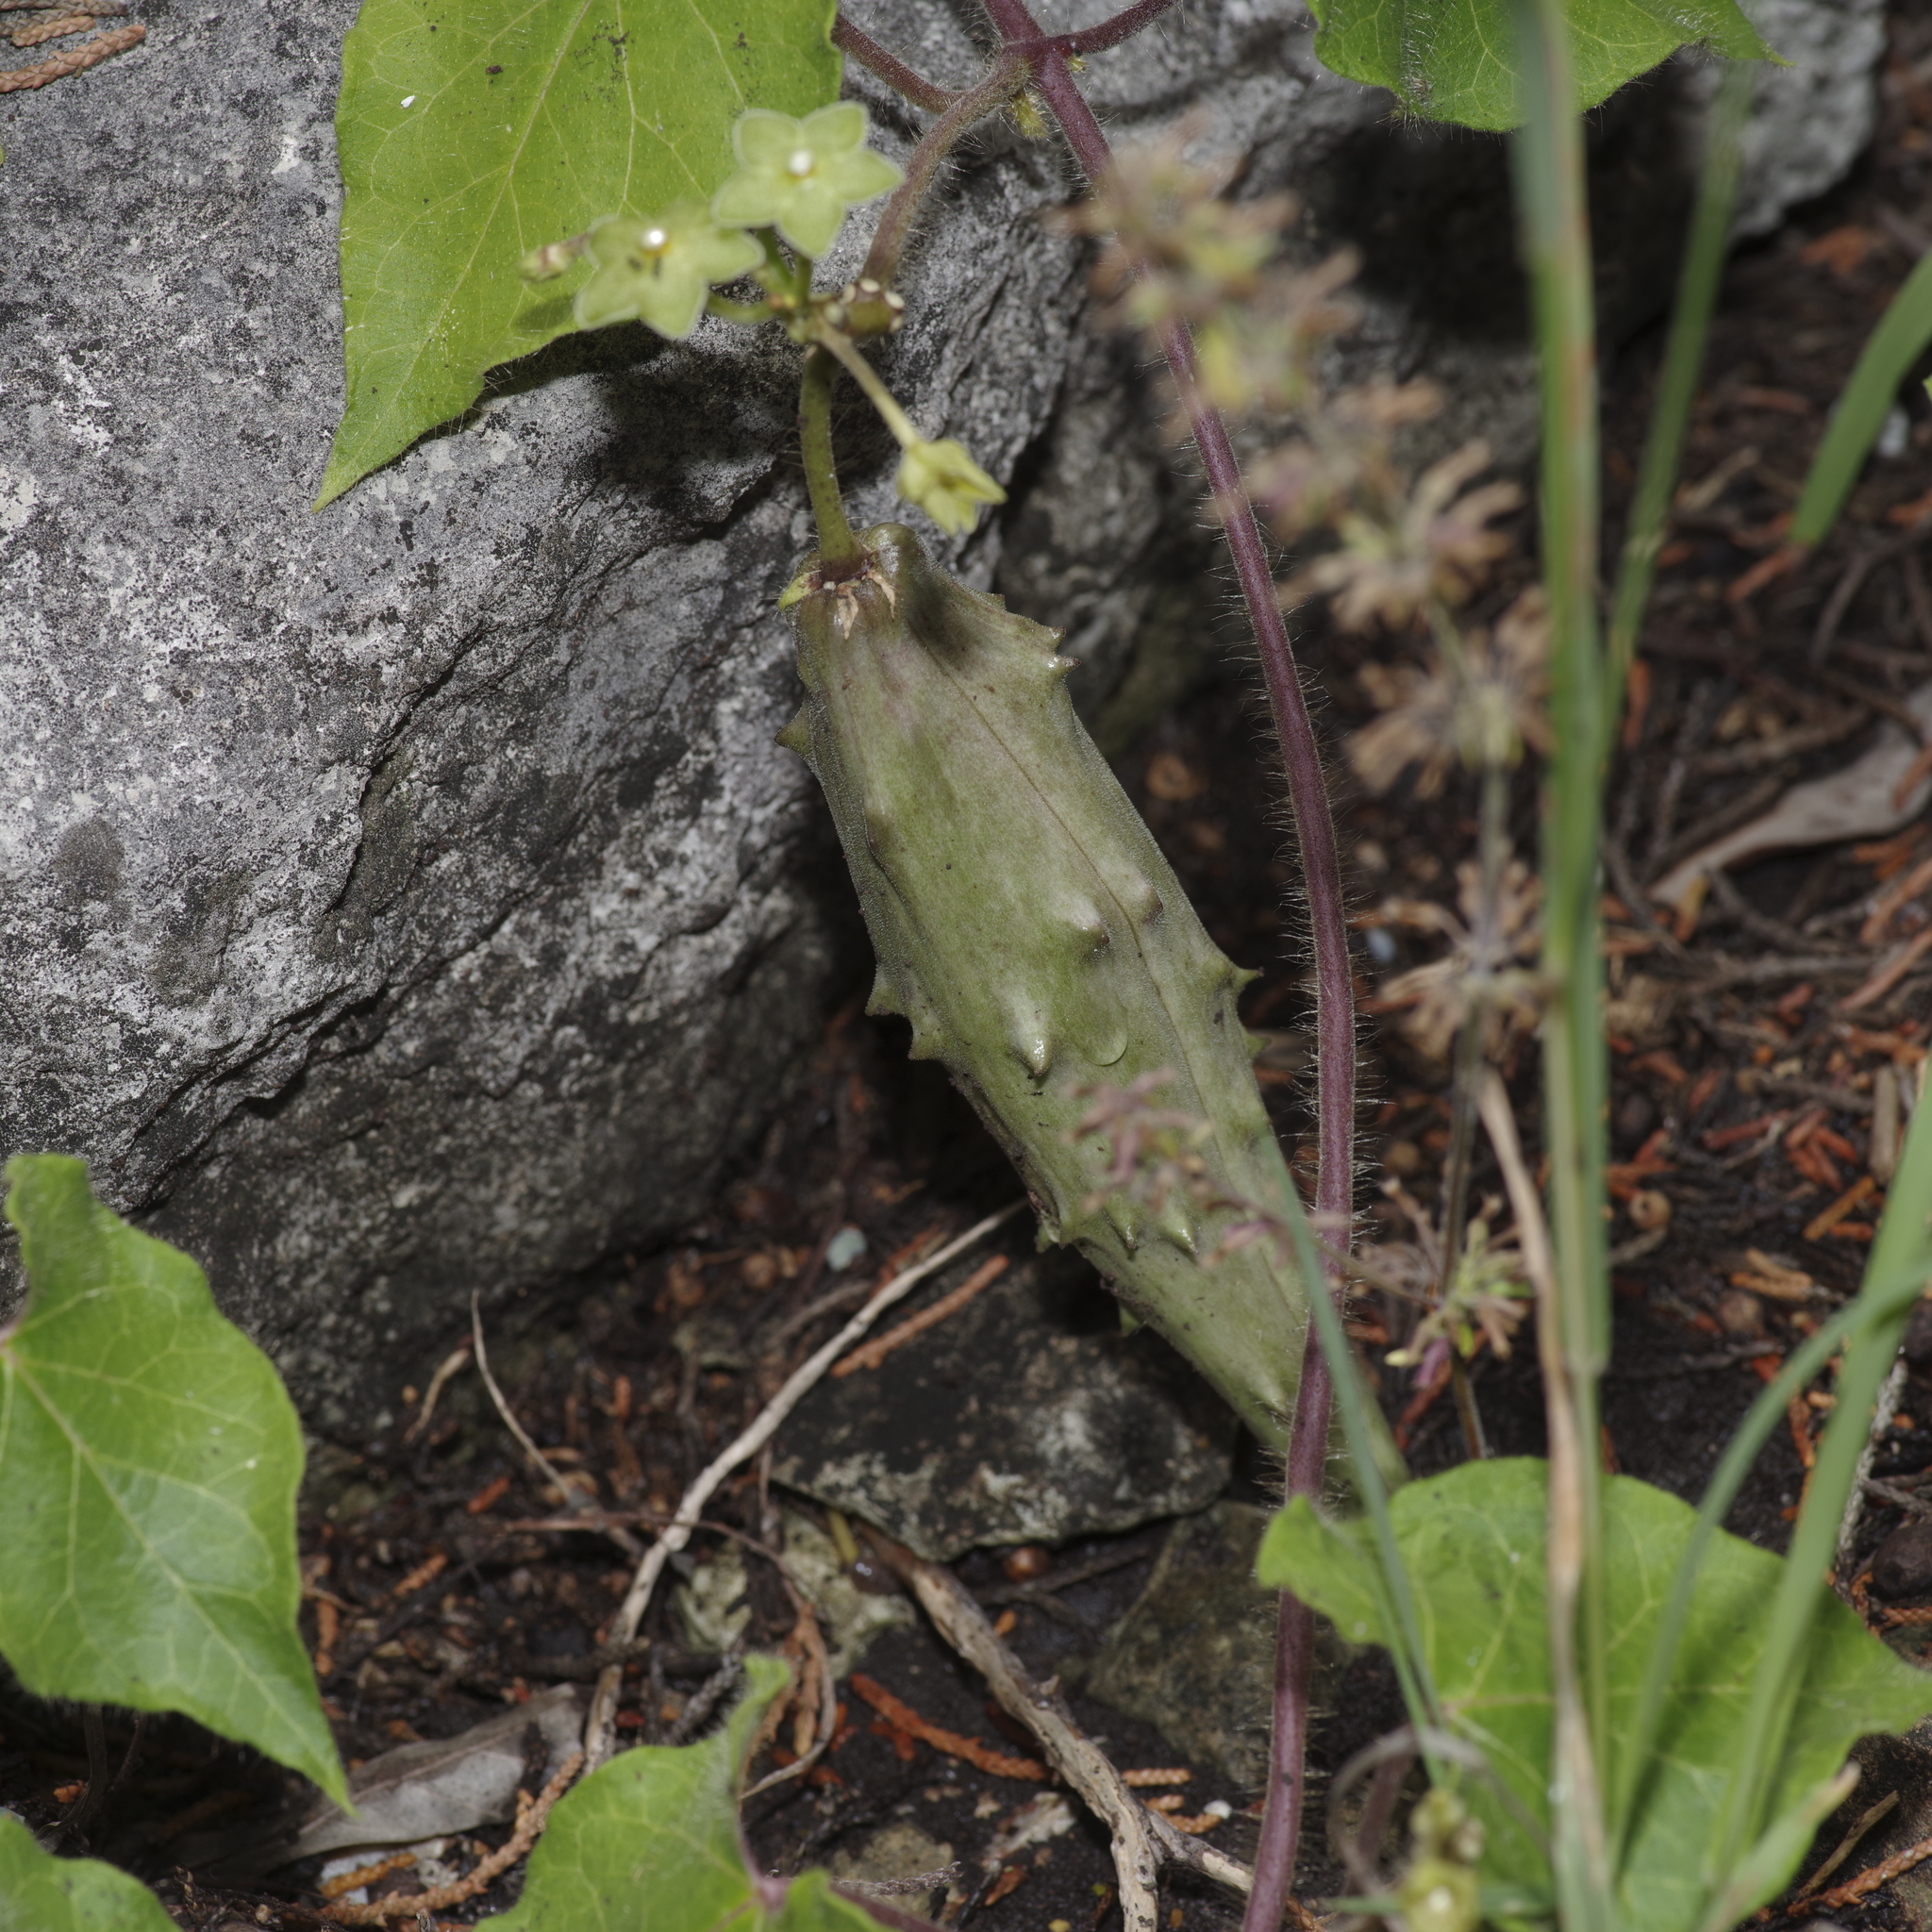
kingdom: Plantae
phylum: Tracheophyta
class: Magnoliopsida
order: Gentianales
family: Apocynaceae
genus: Dictyanthus
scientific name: Dictyanthus reticulatus
